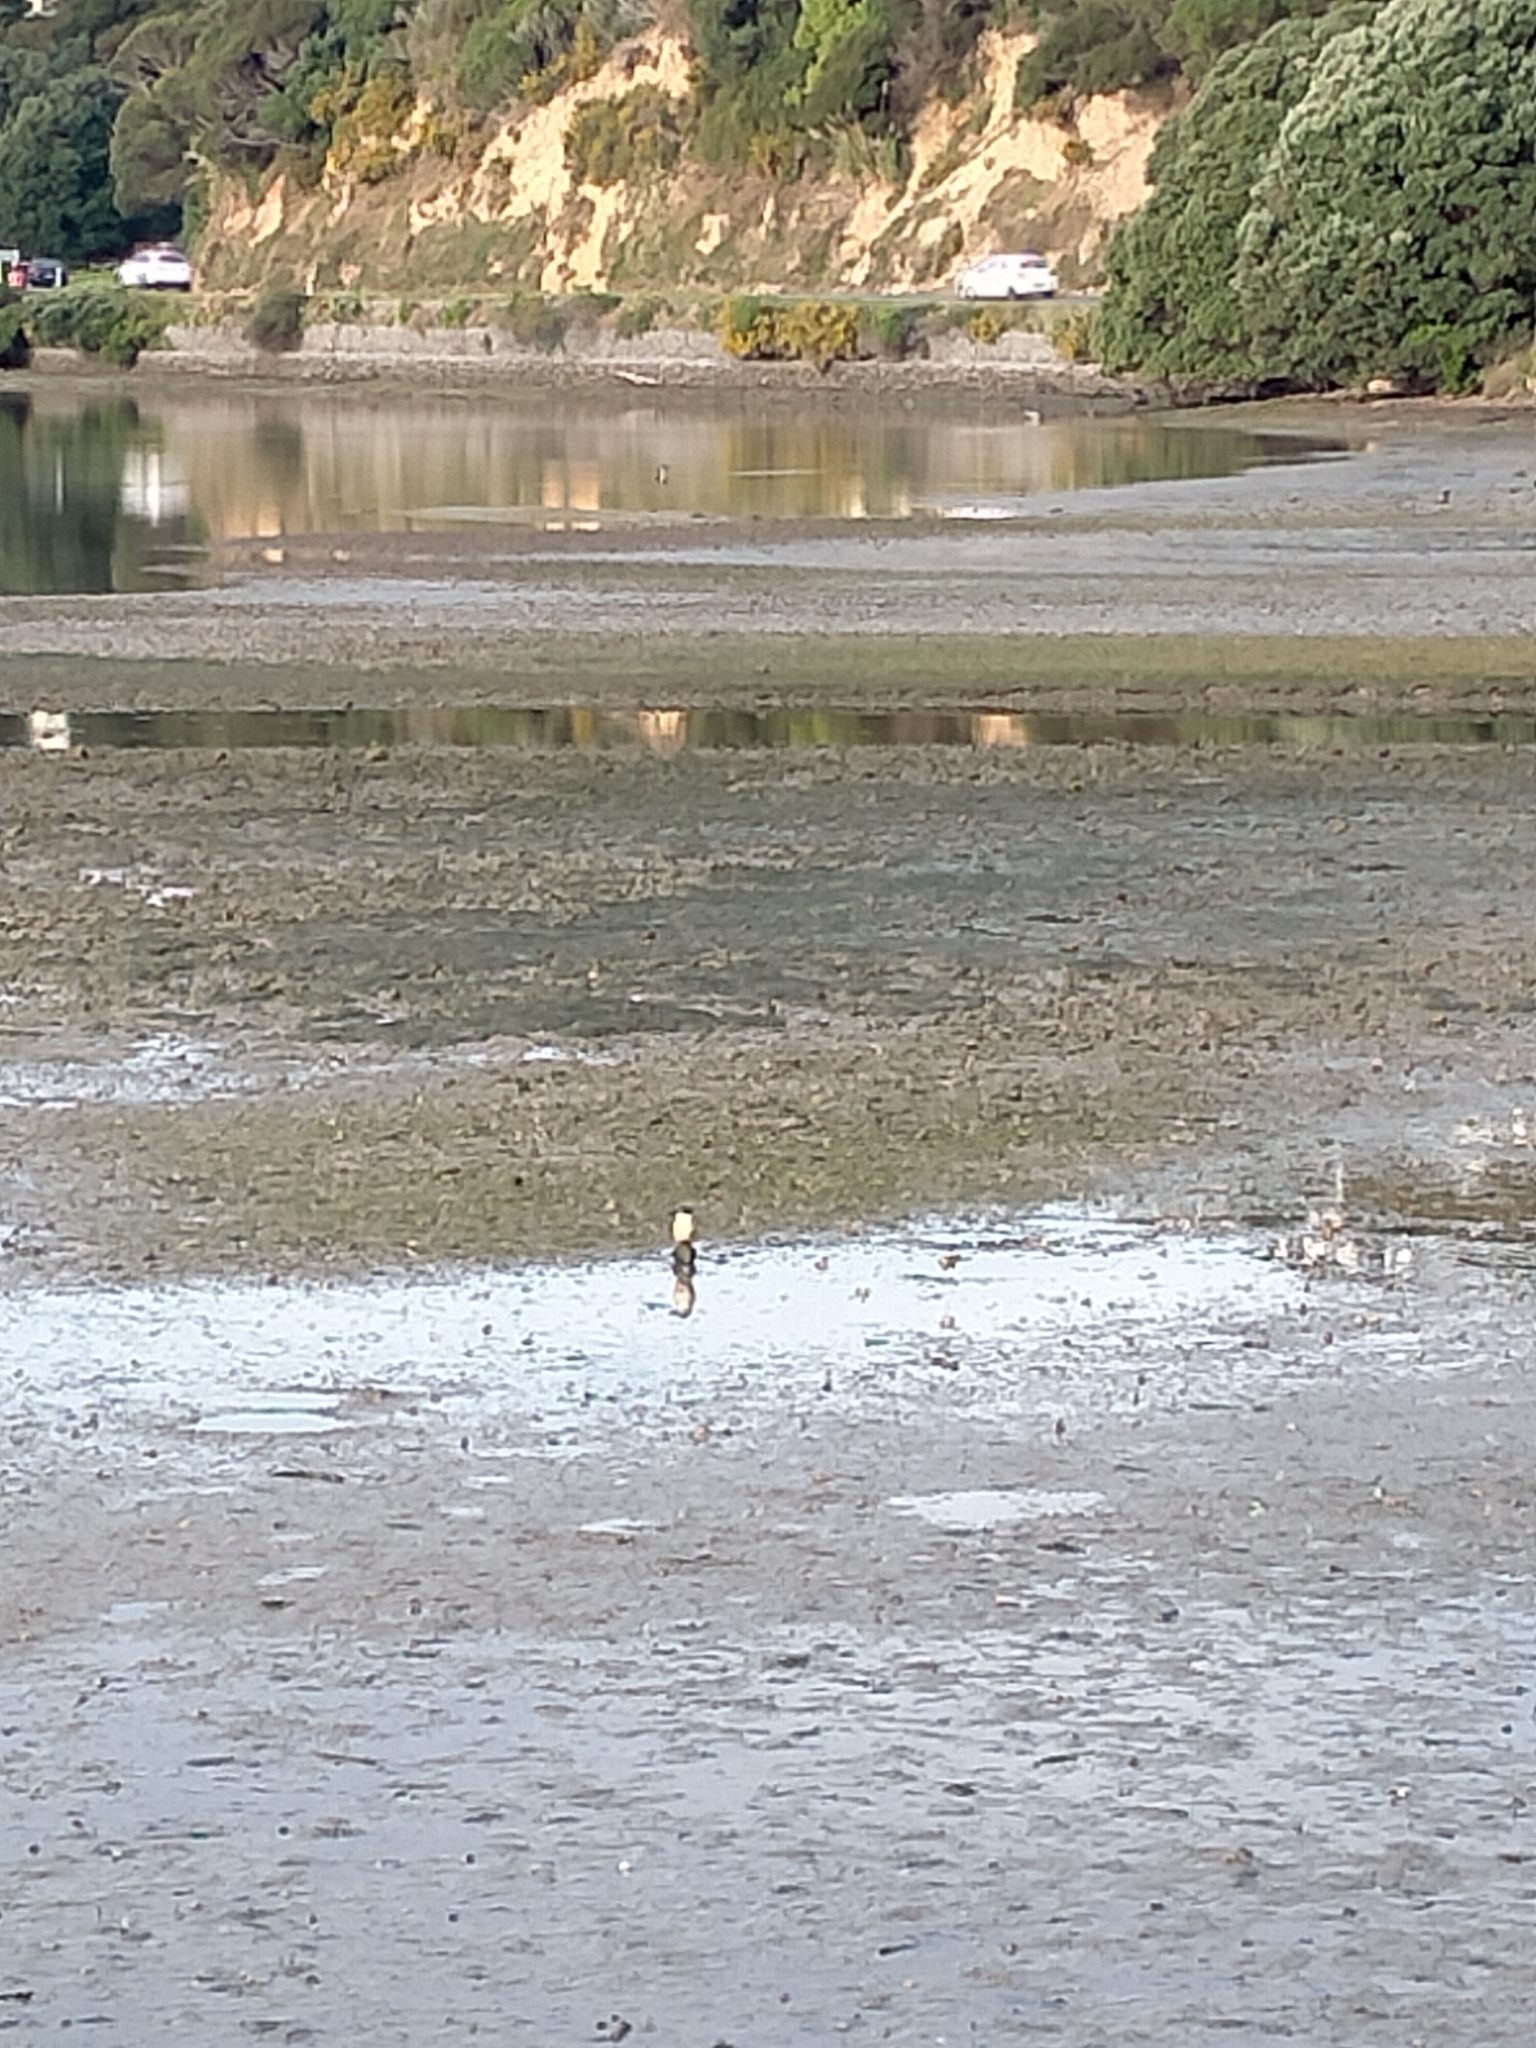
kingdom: Animalia
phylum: Chordata
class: Aves
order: Coraciiformes
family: Alcedinidae
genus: Todiramphus
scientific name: Todiramphus sanctus
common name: Sacred kingfisher
